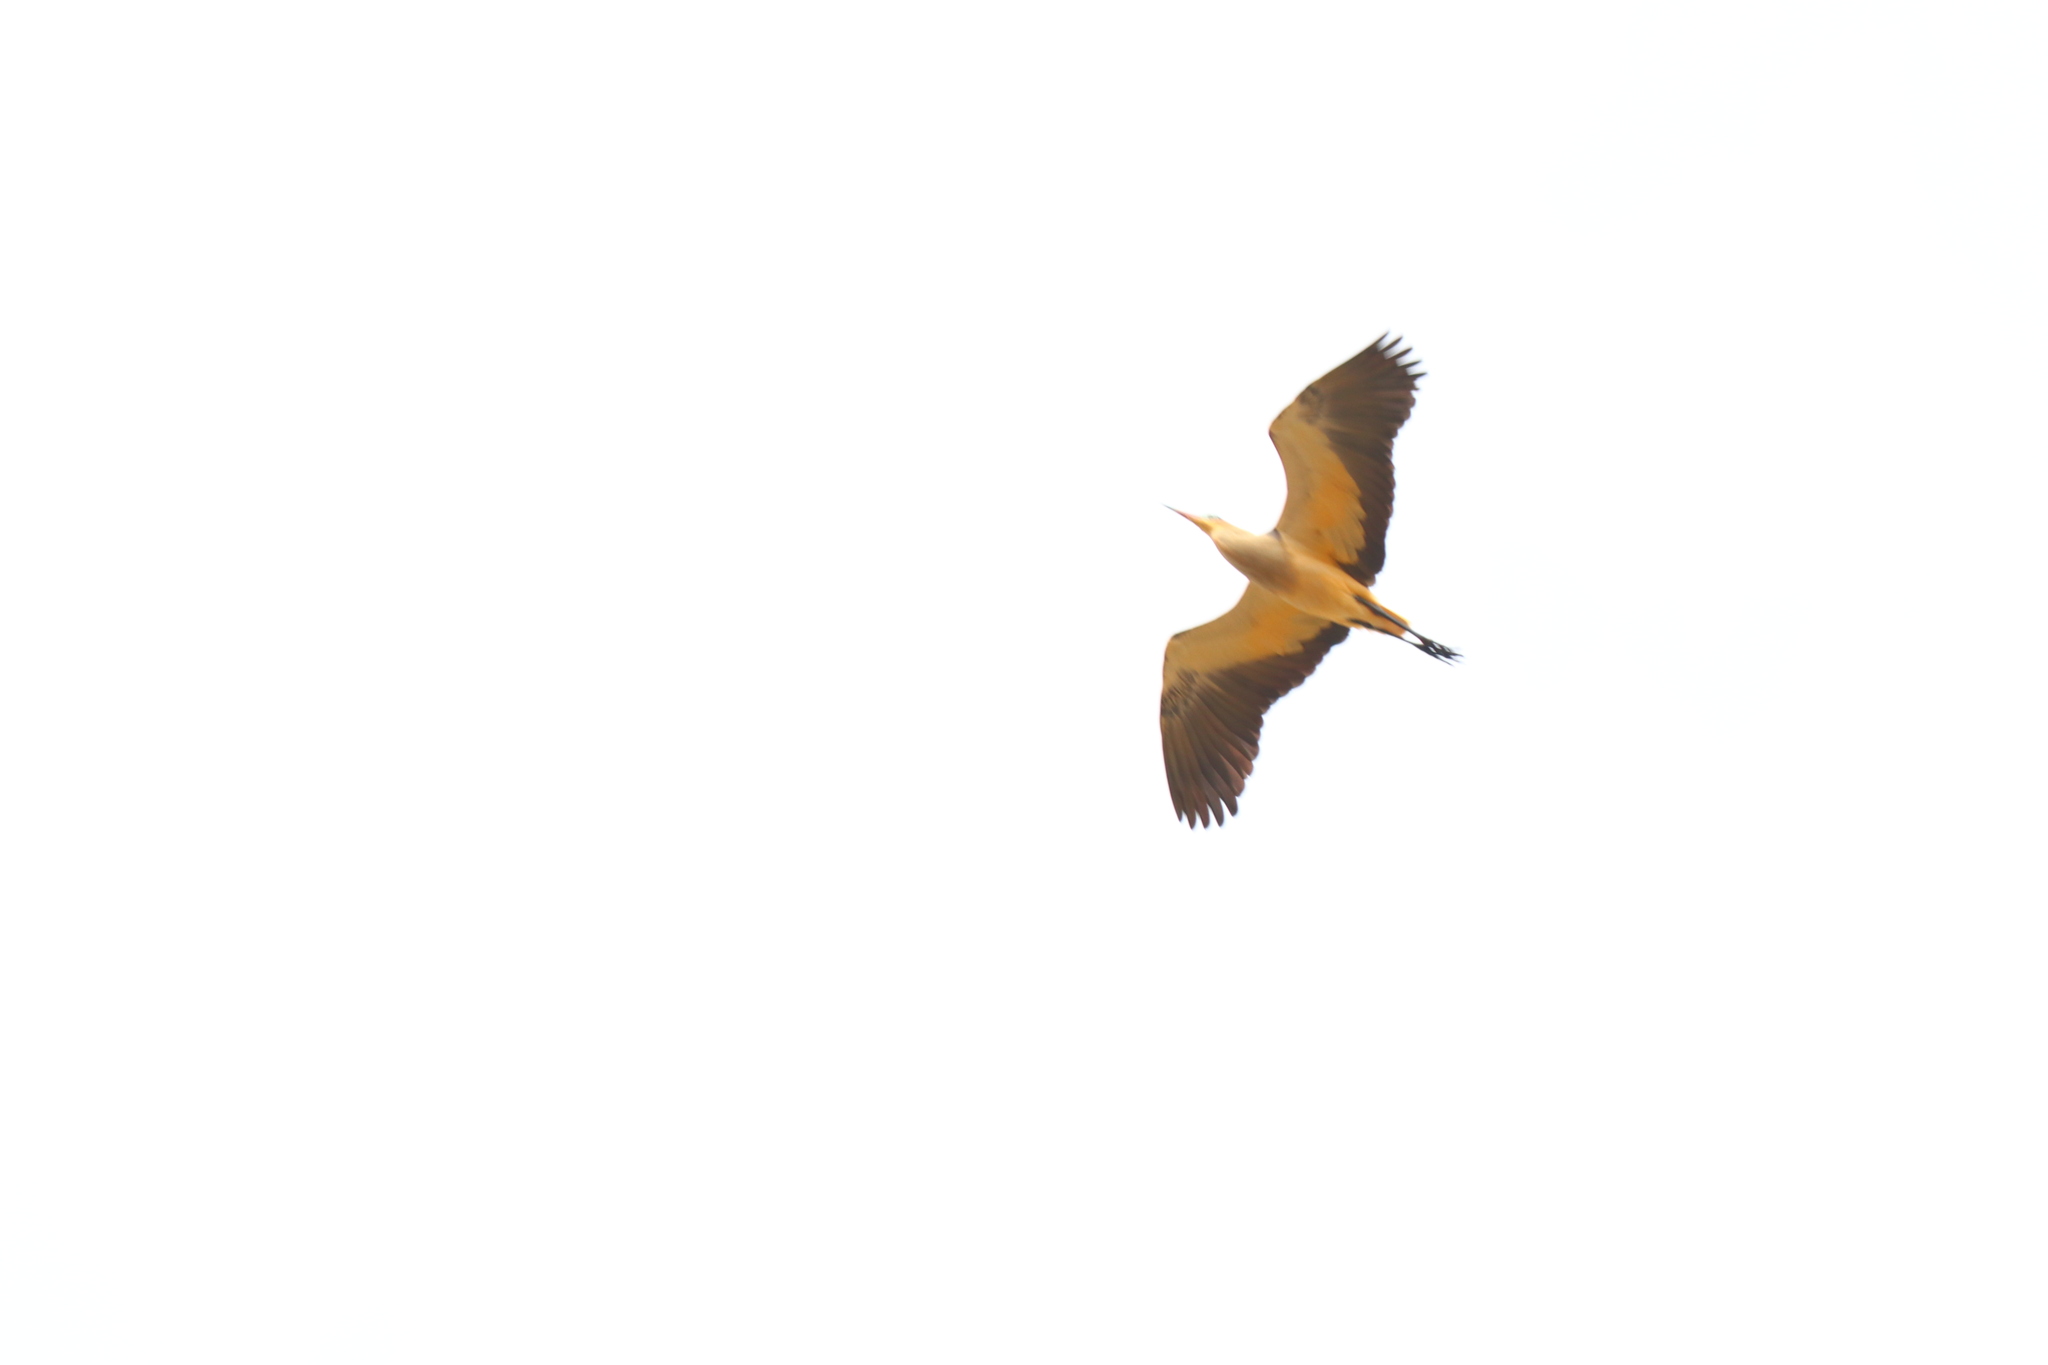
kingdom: Animalia
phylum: Chordata
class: Aves
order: Pelecaniformes
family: Ardeidae
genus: Syrigma
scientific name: Syrigma sibilatrix
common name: Whistling heron
